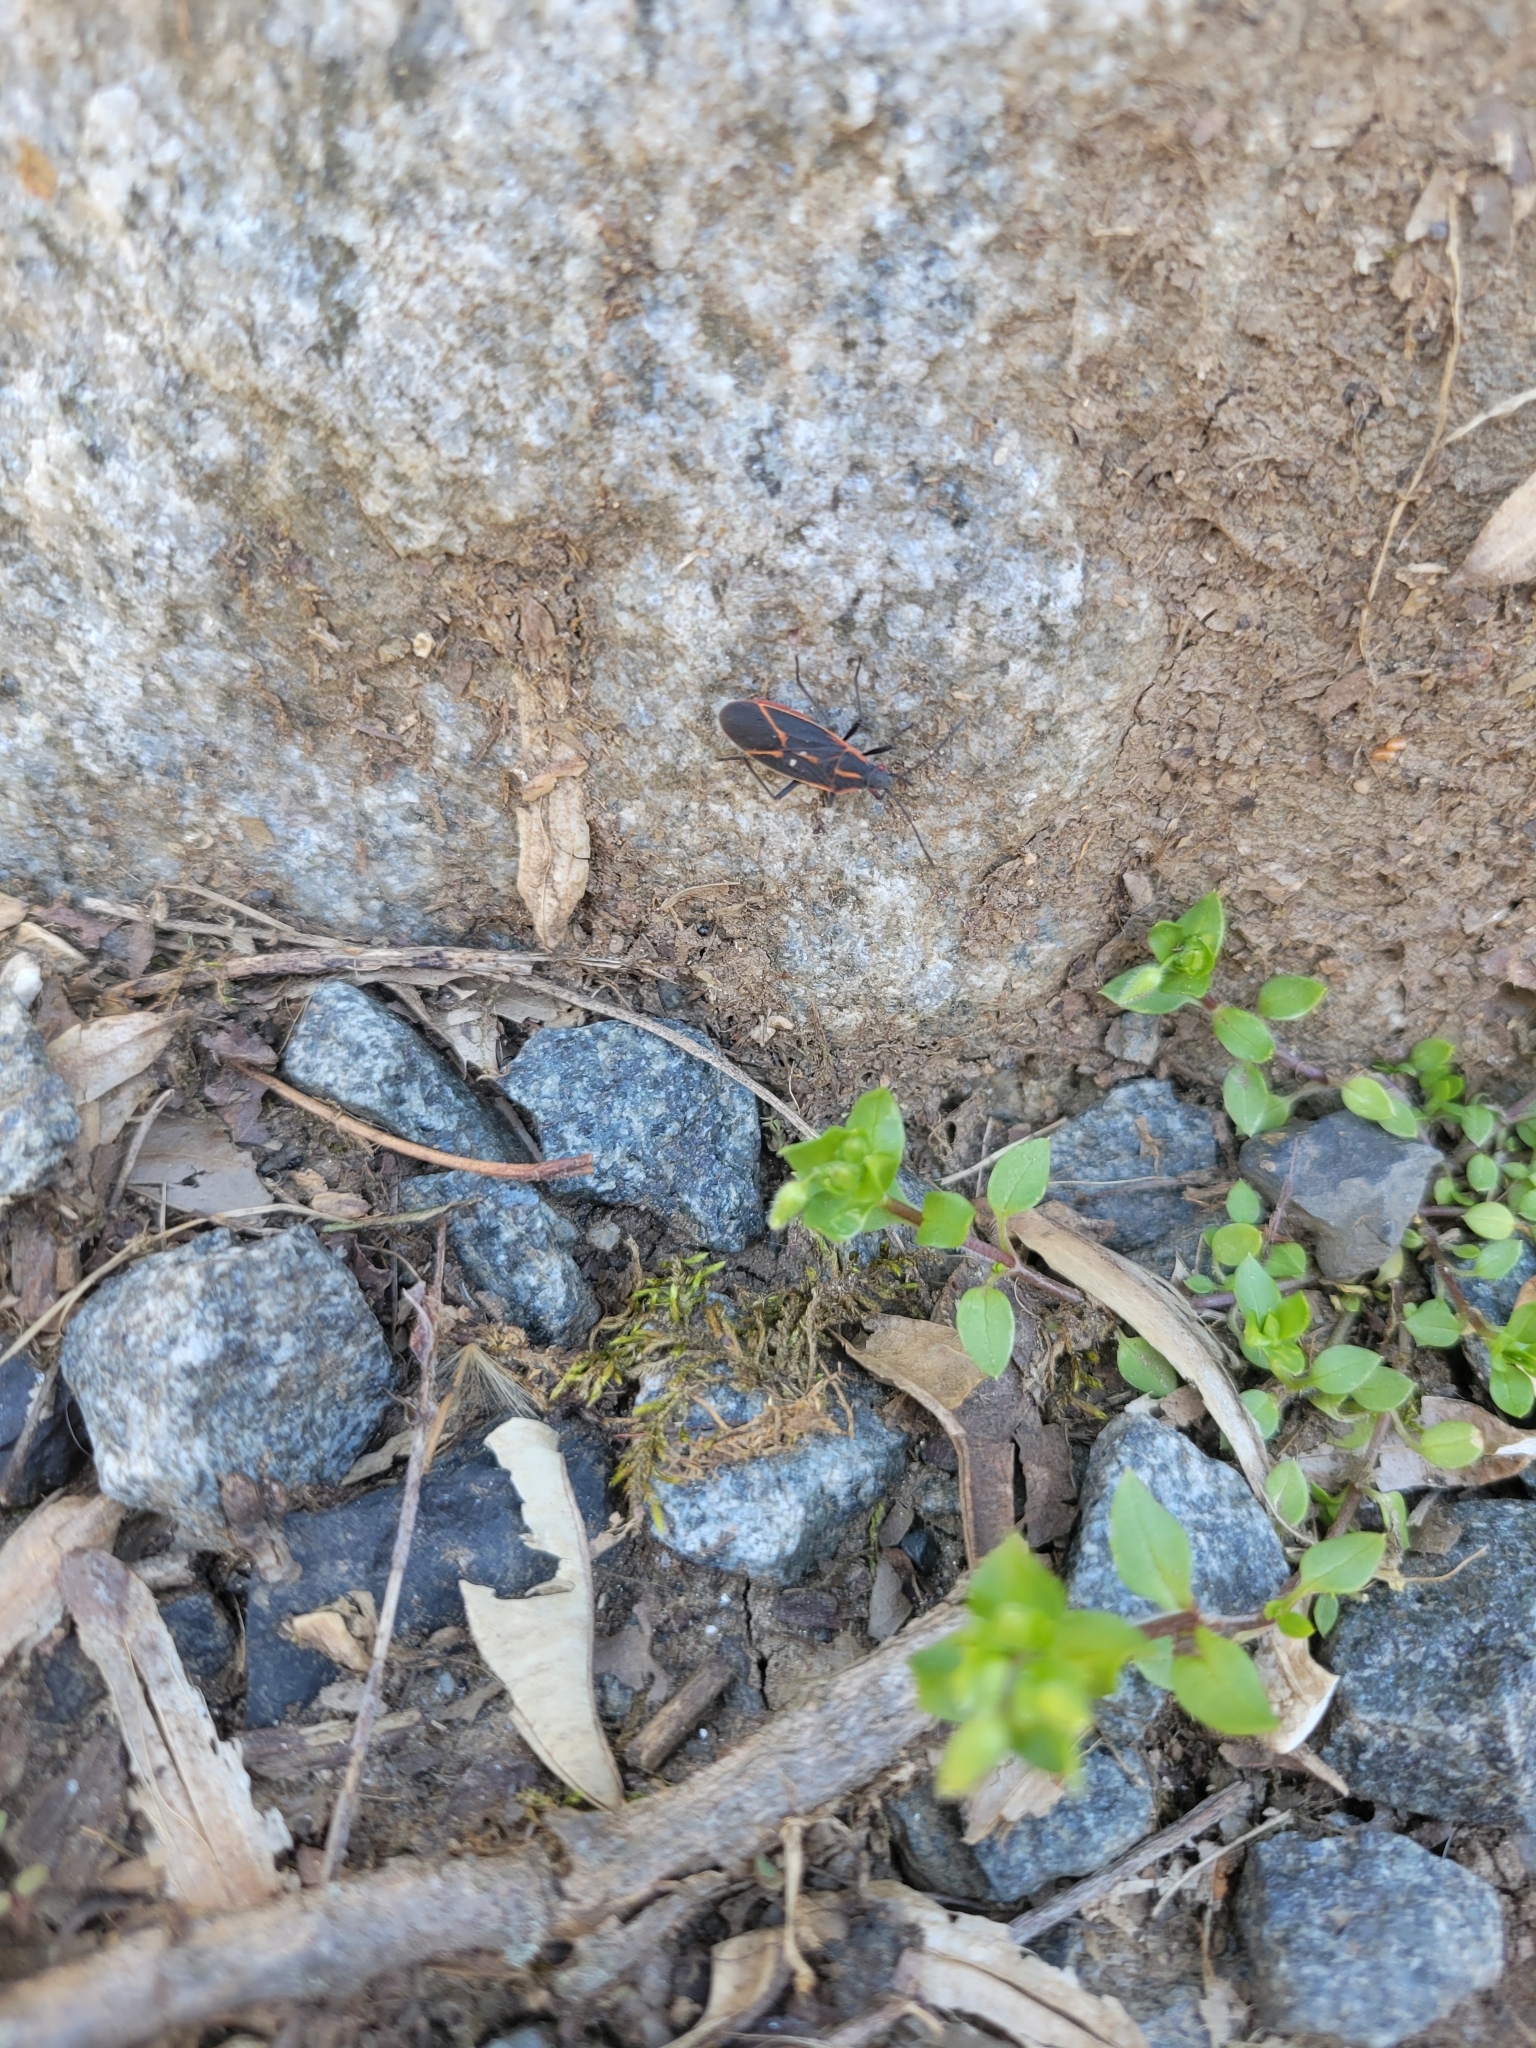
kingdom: Animalia
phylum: Arthropoda
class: Insecta
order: Hemiptera
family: Rhopalidae
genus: Boisea
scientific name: Boisea trivittata
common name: Boxelder bug
